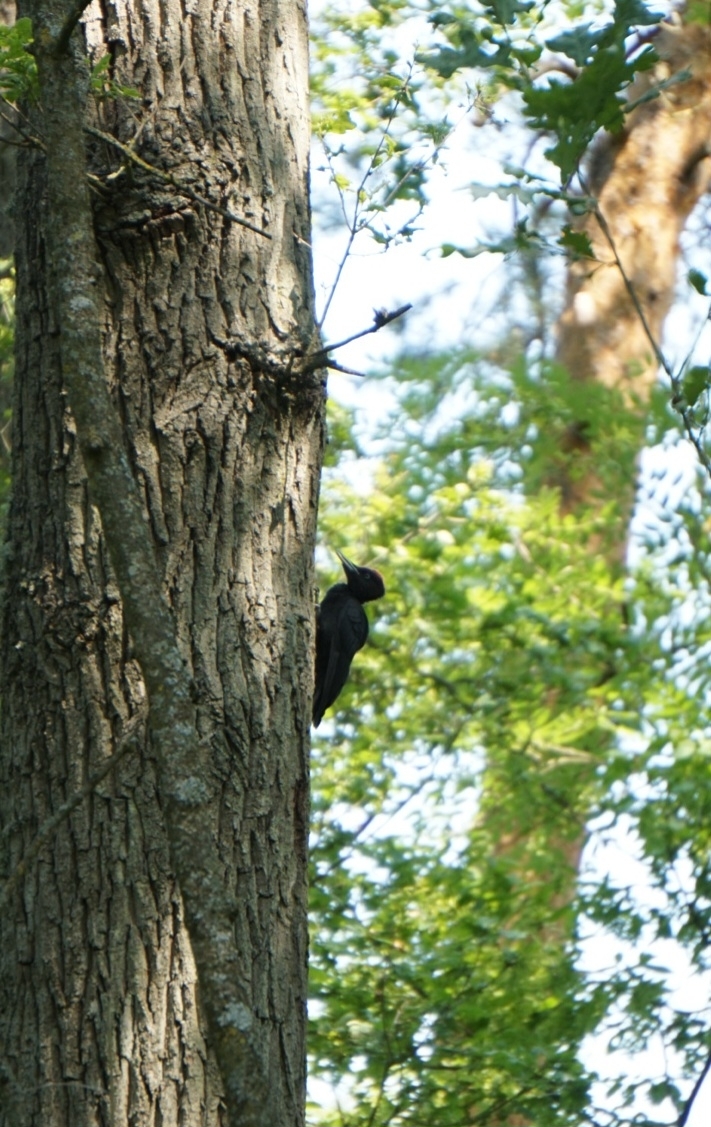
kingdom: Animalia
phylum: Chordata
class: Aves
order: Piciformes
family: Picidae
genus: Dryocopus
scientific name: Dryocopus martius
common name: Black woodpecker
